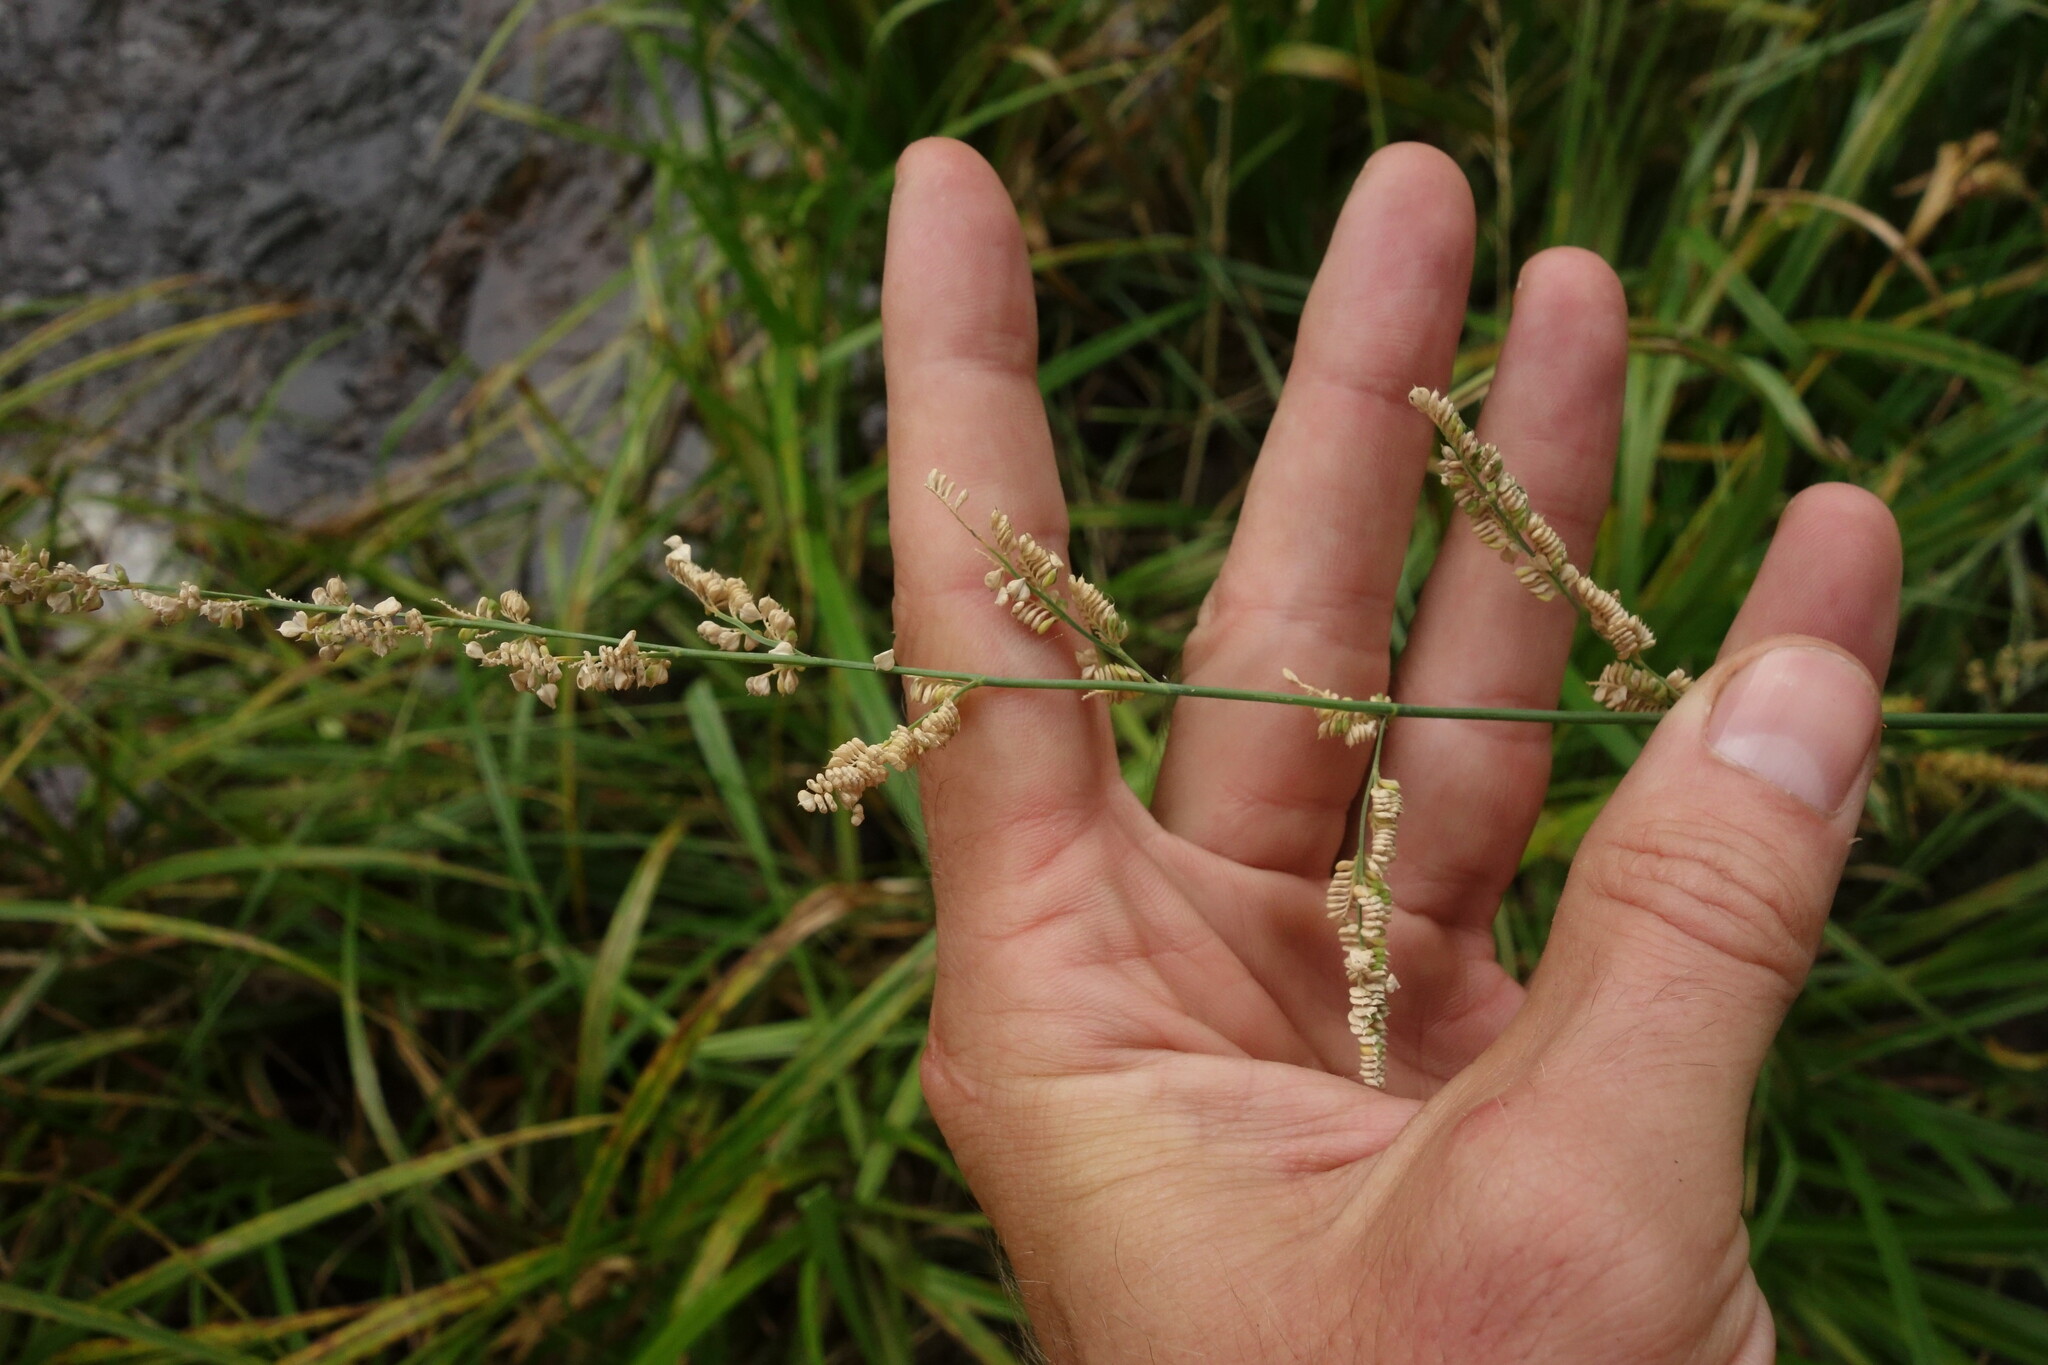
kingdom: Plantae
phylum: Tracheophyta
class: Liliopsida
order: Poales
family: Poaceae
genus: Beckmannia
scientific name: Beckmannia syzigachne
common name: American slough-grass
